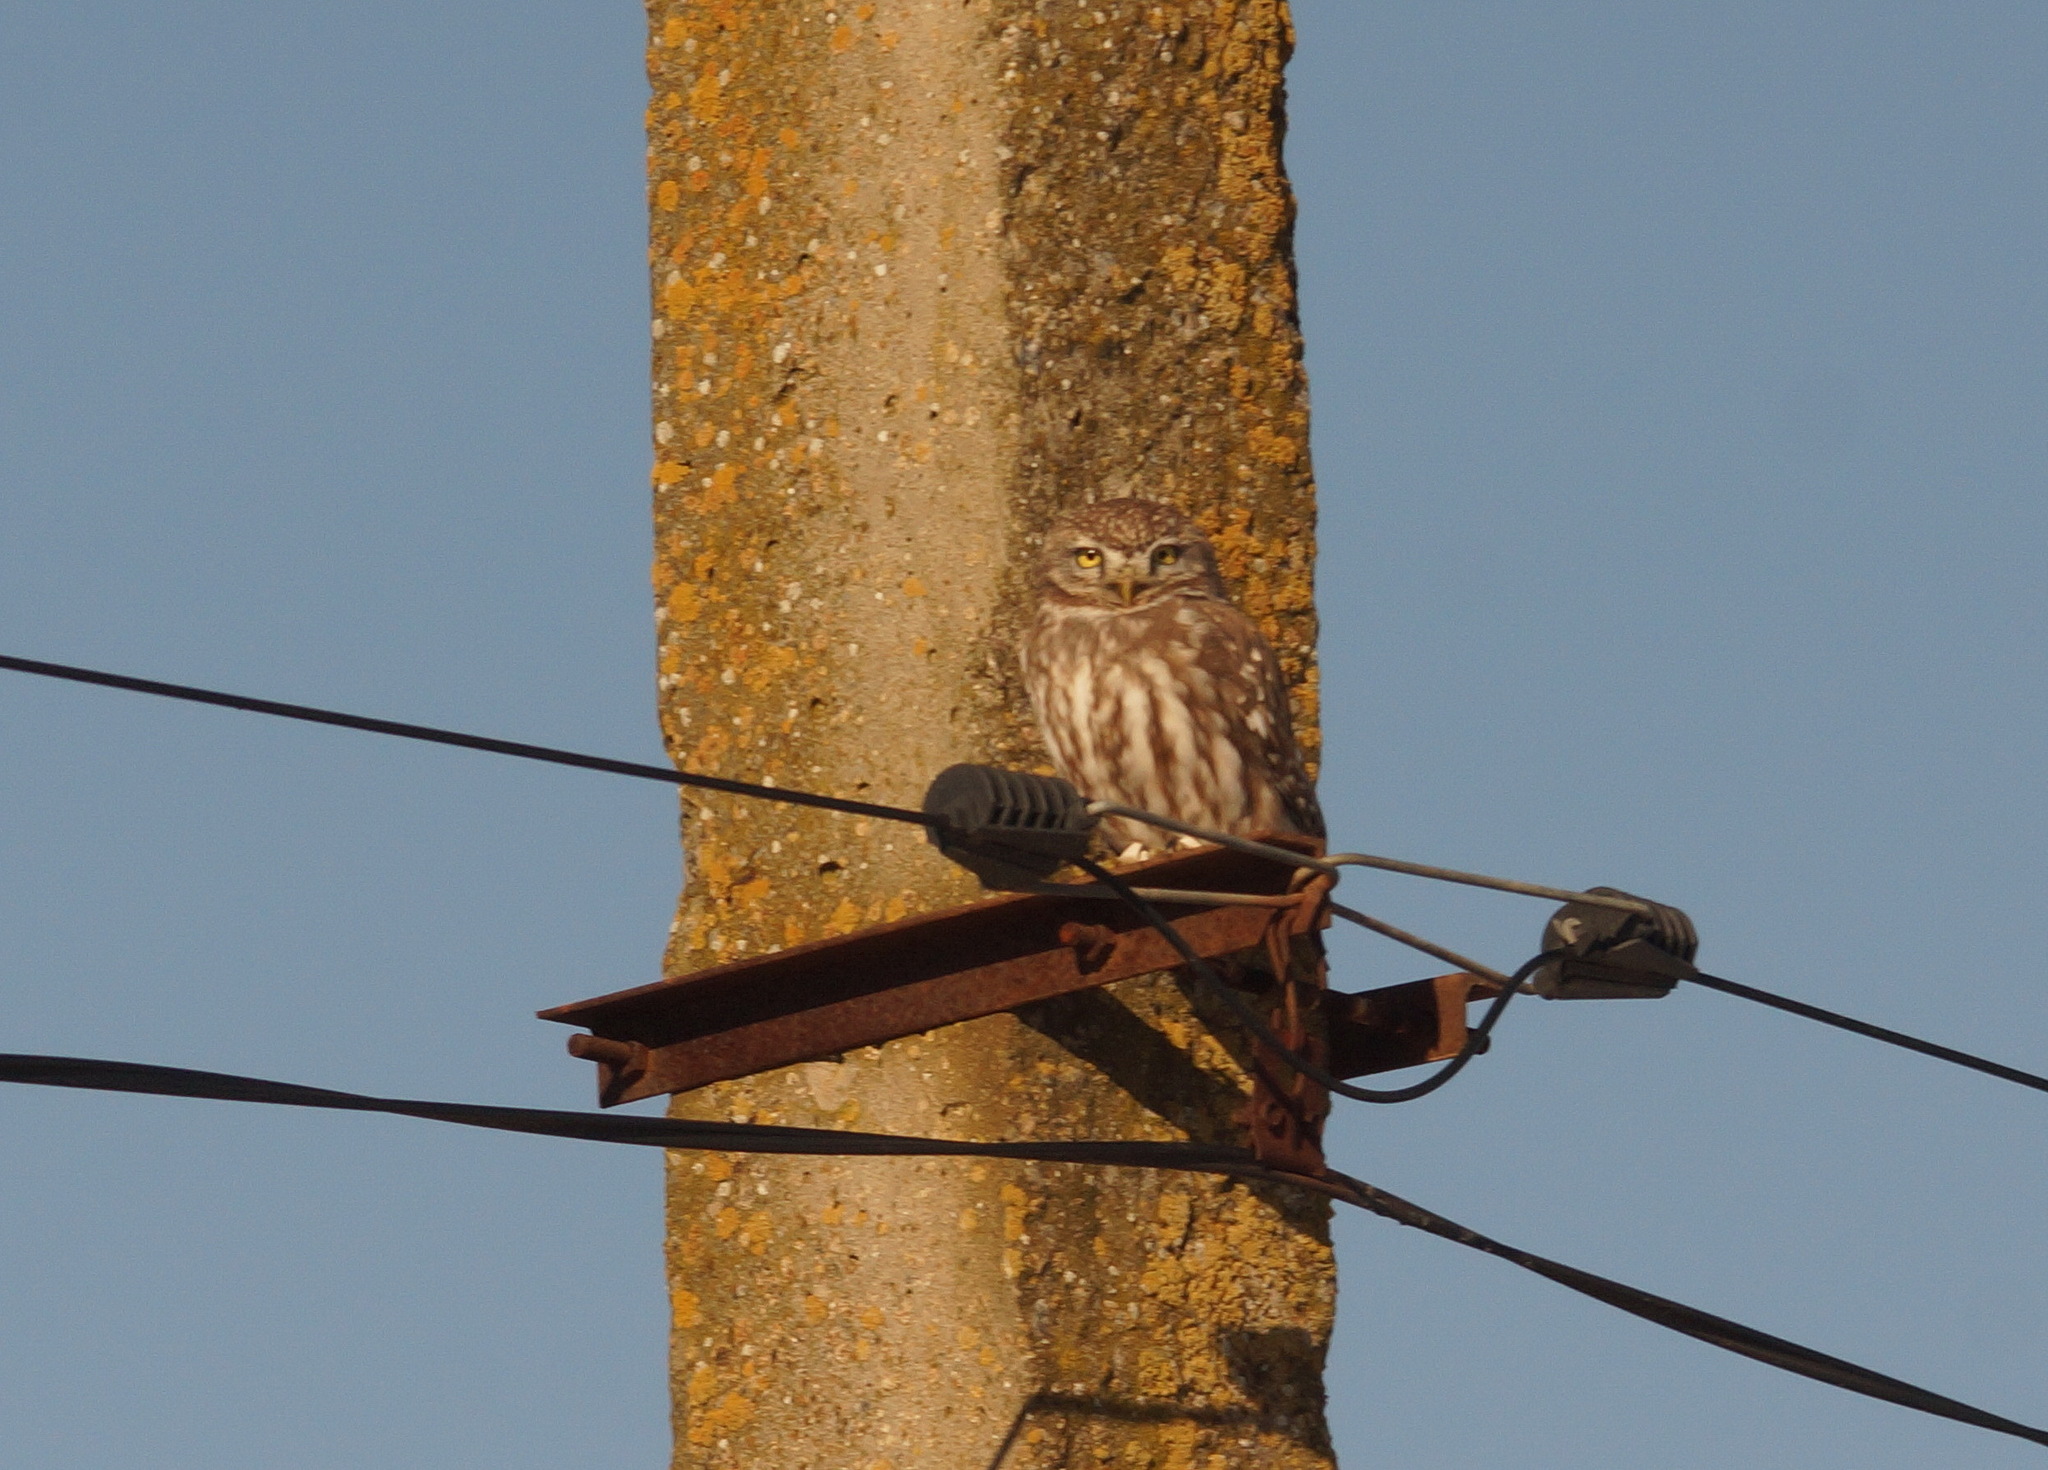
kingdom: Animalia
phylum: Chordata
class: Aves
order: Strigiformes
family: Strigidae
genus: Athene
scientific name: Athene noctua
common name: Little owl
